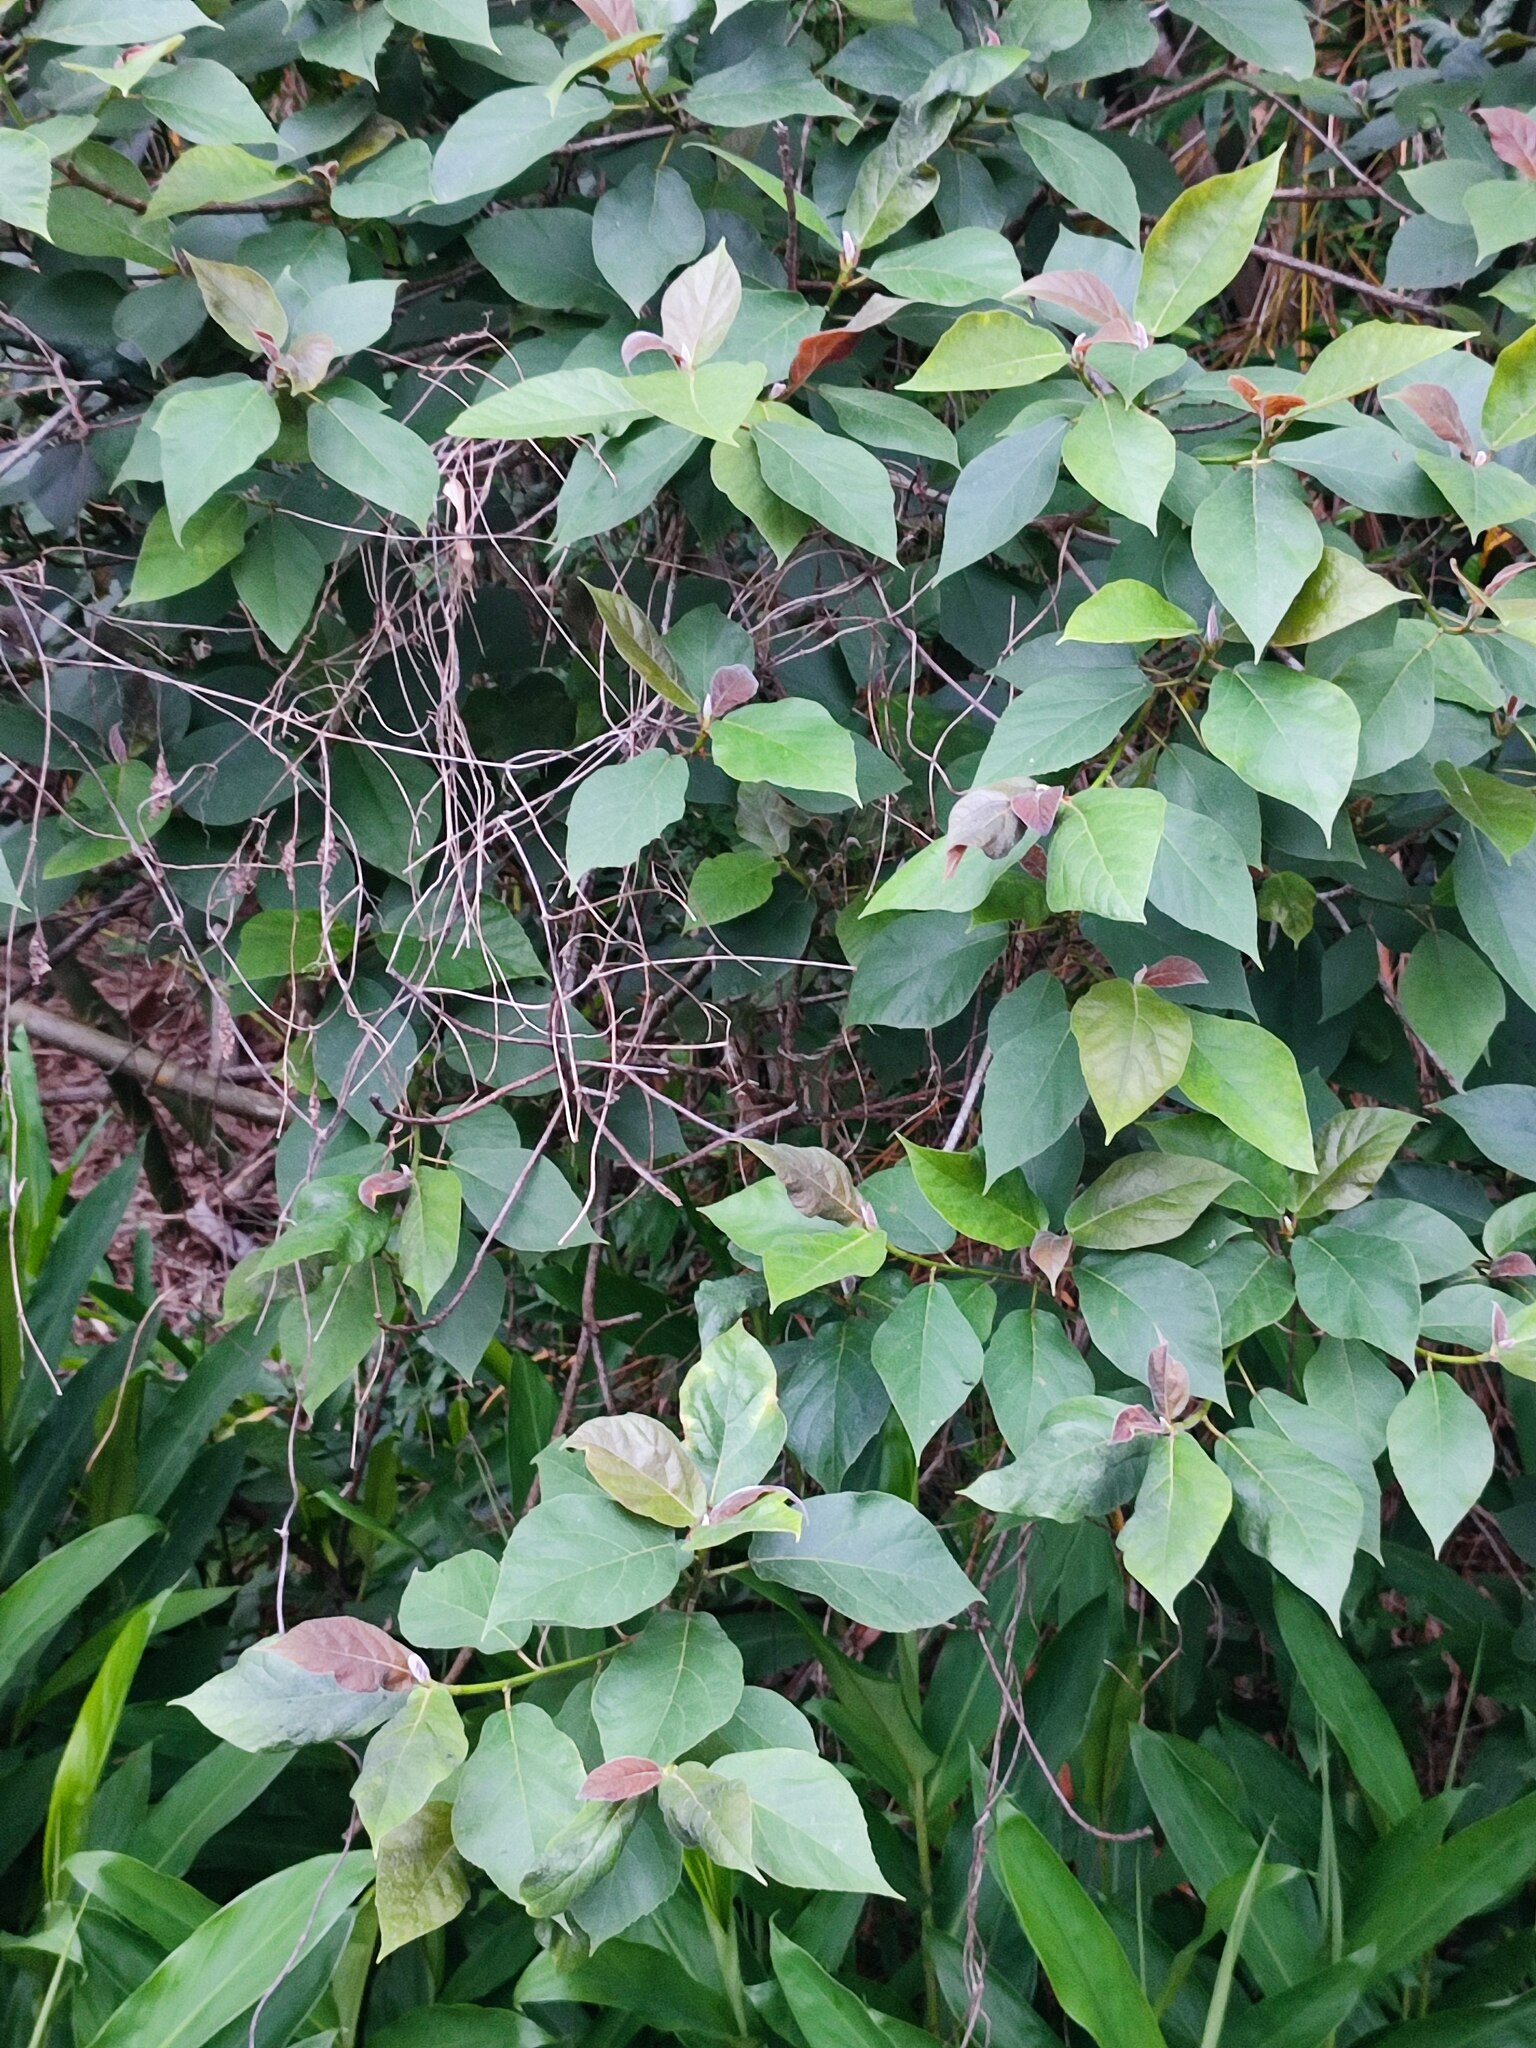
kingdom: Plantae
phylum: Tracheophyta
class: Magnoliopsida
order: Rosales
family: Moraceae
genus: Ficus
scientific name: Ficus erecta
